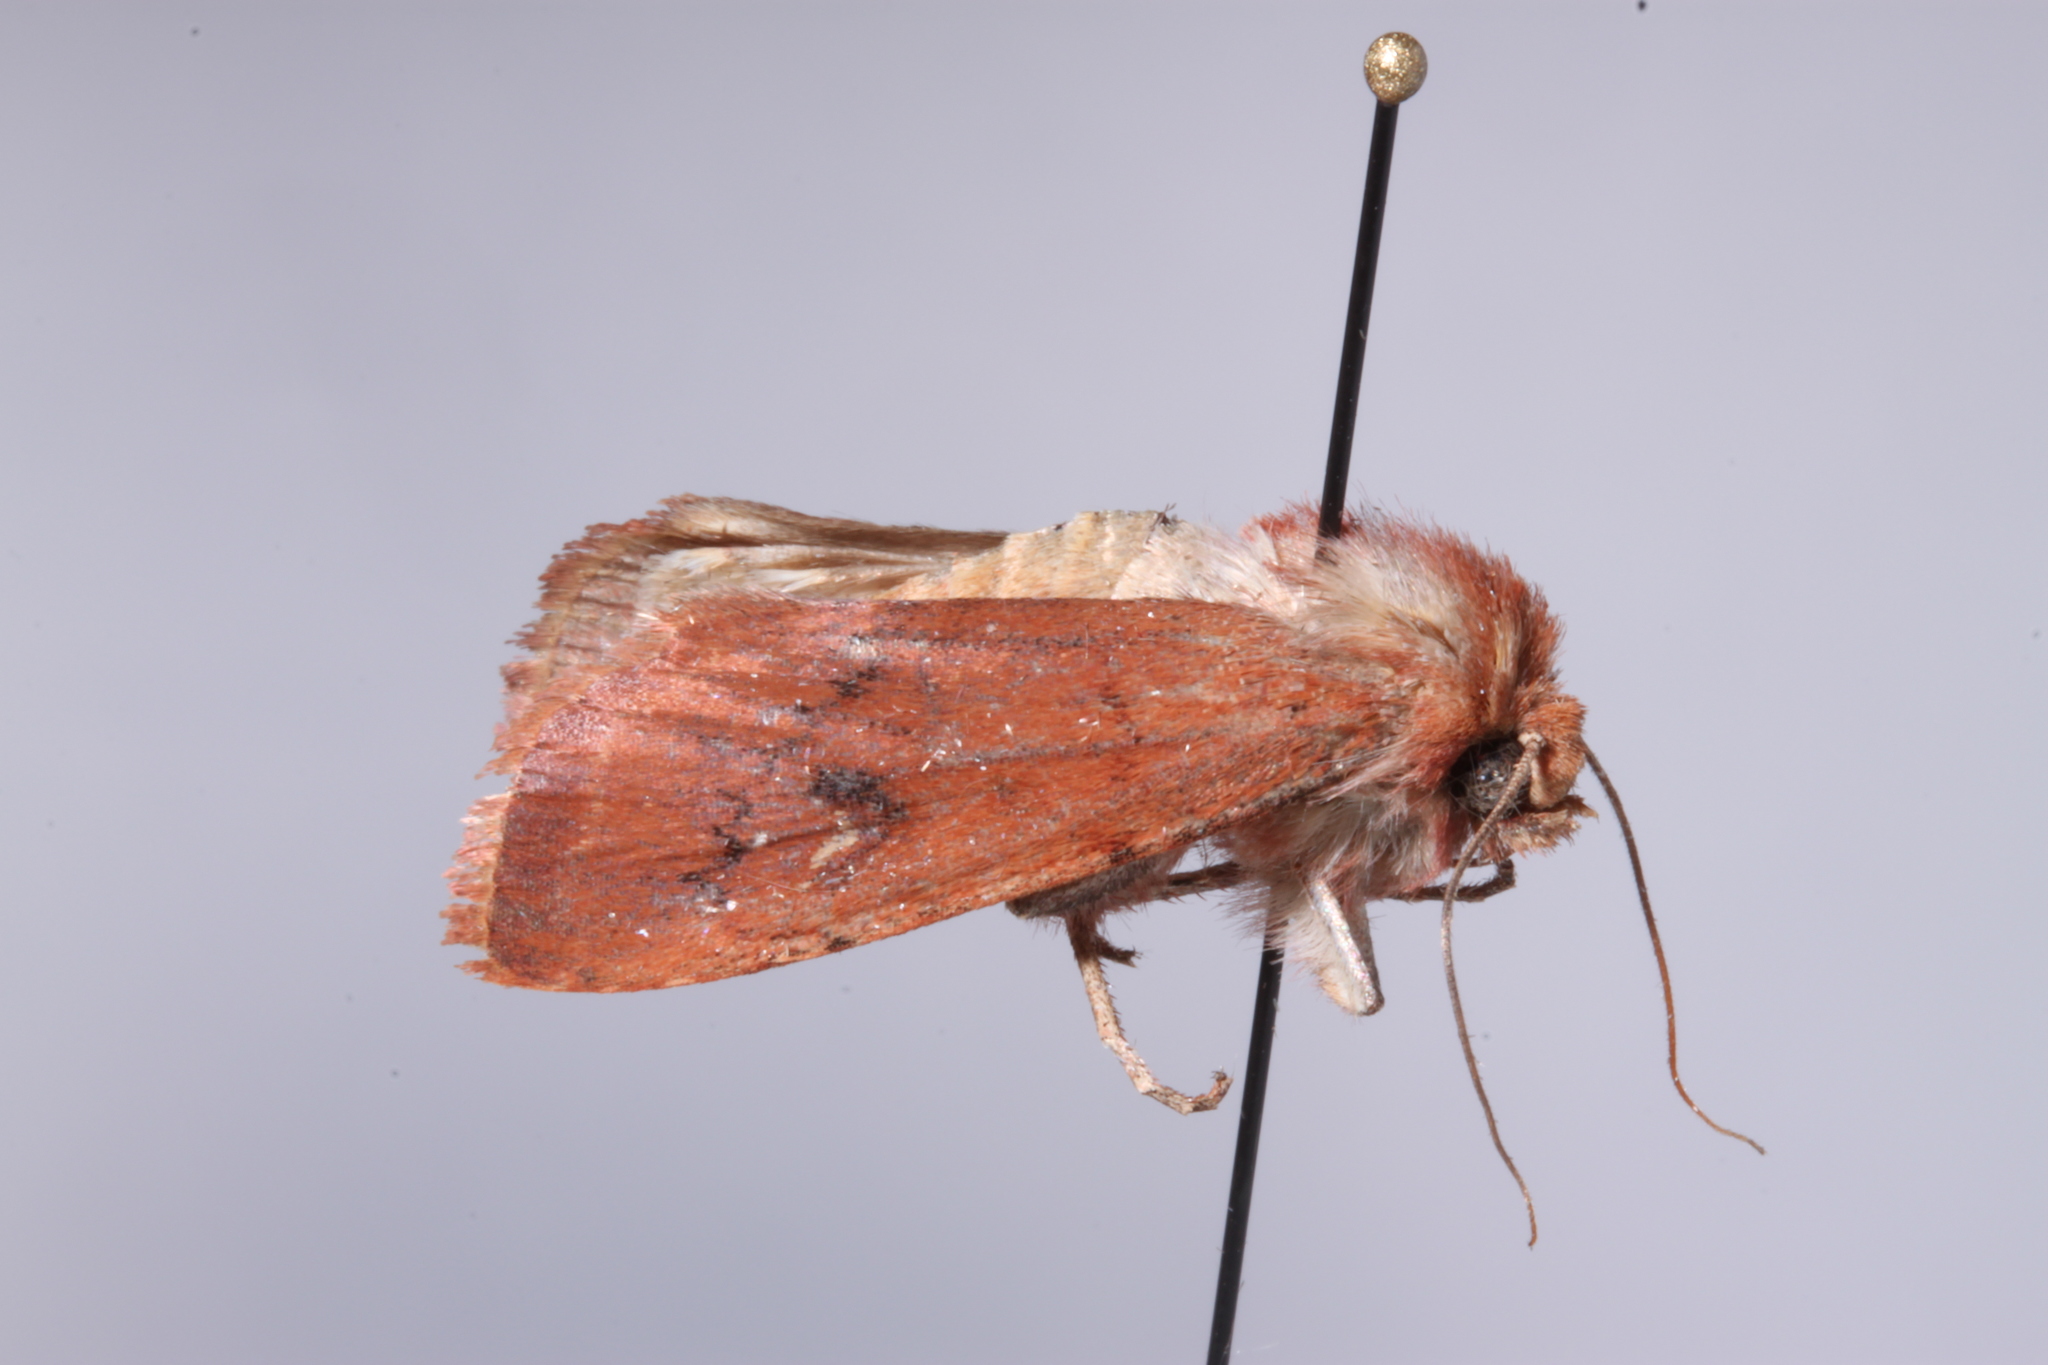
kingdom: Animalia
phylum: Arthropoda
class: Insecta
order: Lepidoptera
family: Noctuidae
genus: Euxoa
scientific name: Euxoa mimallonis
